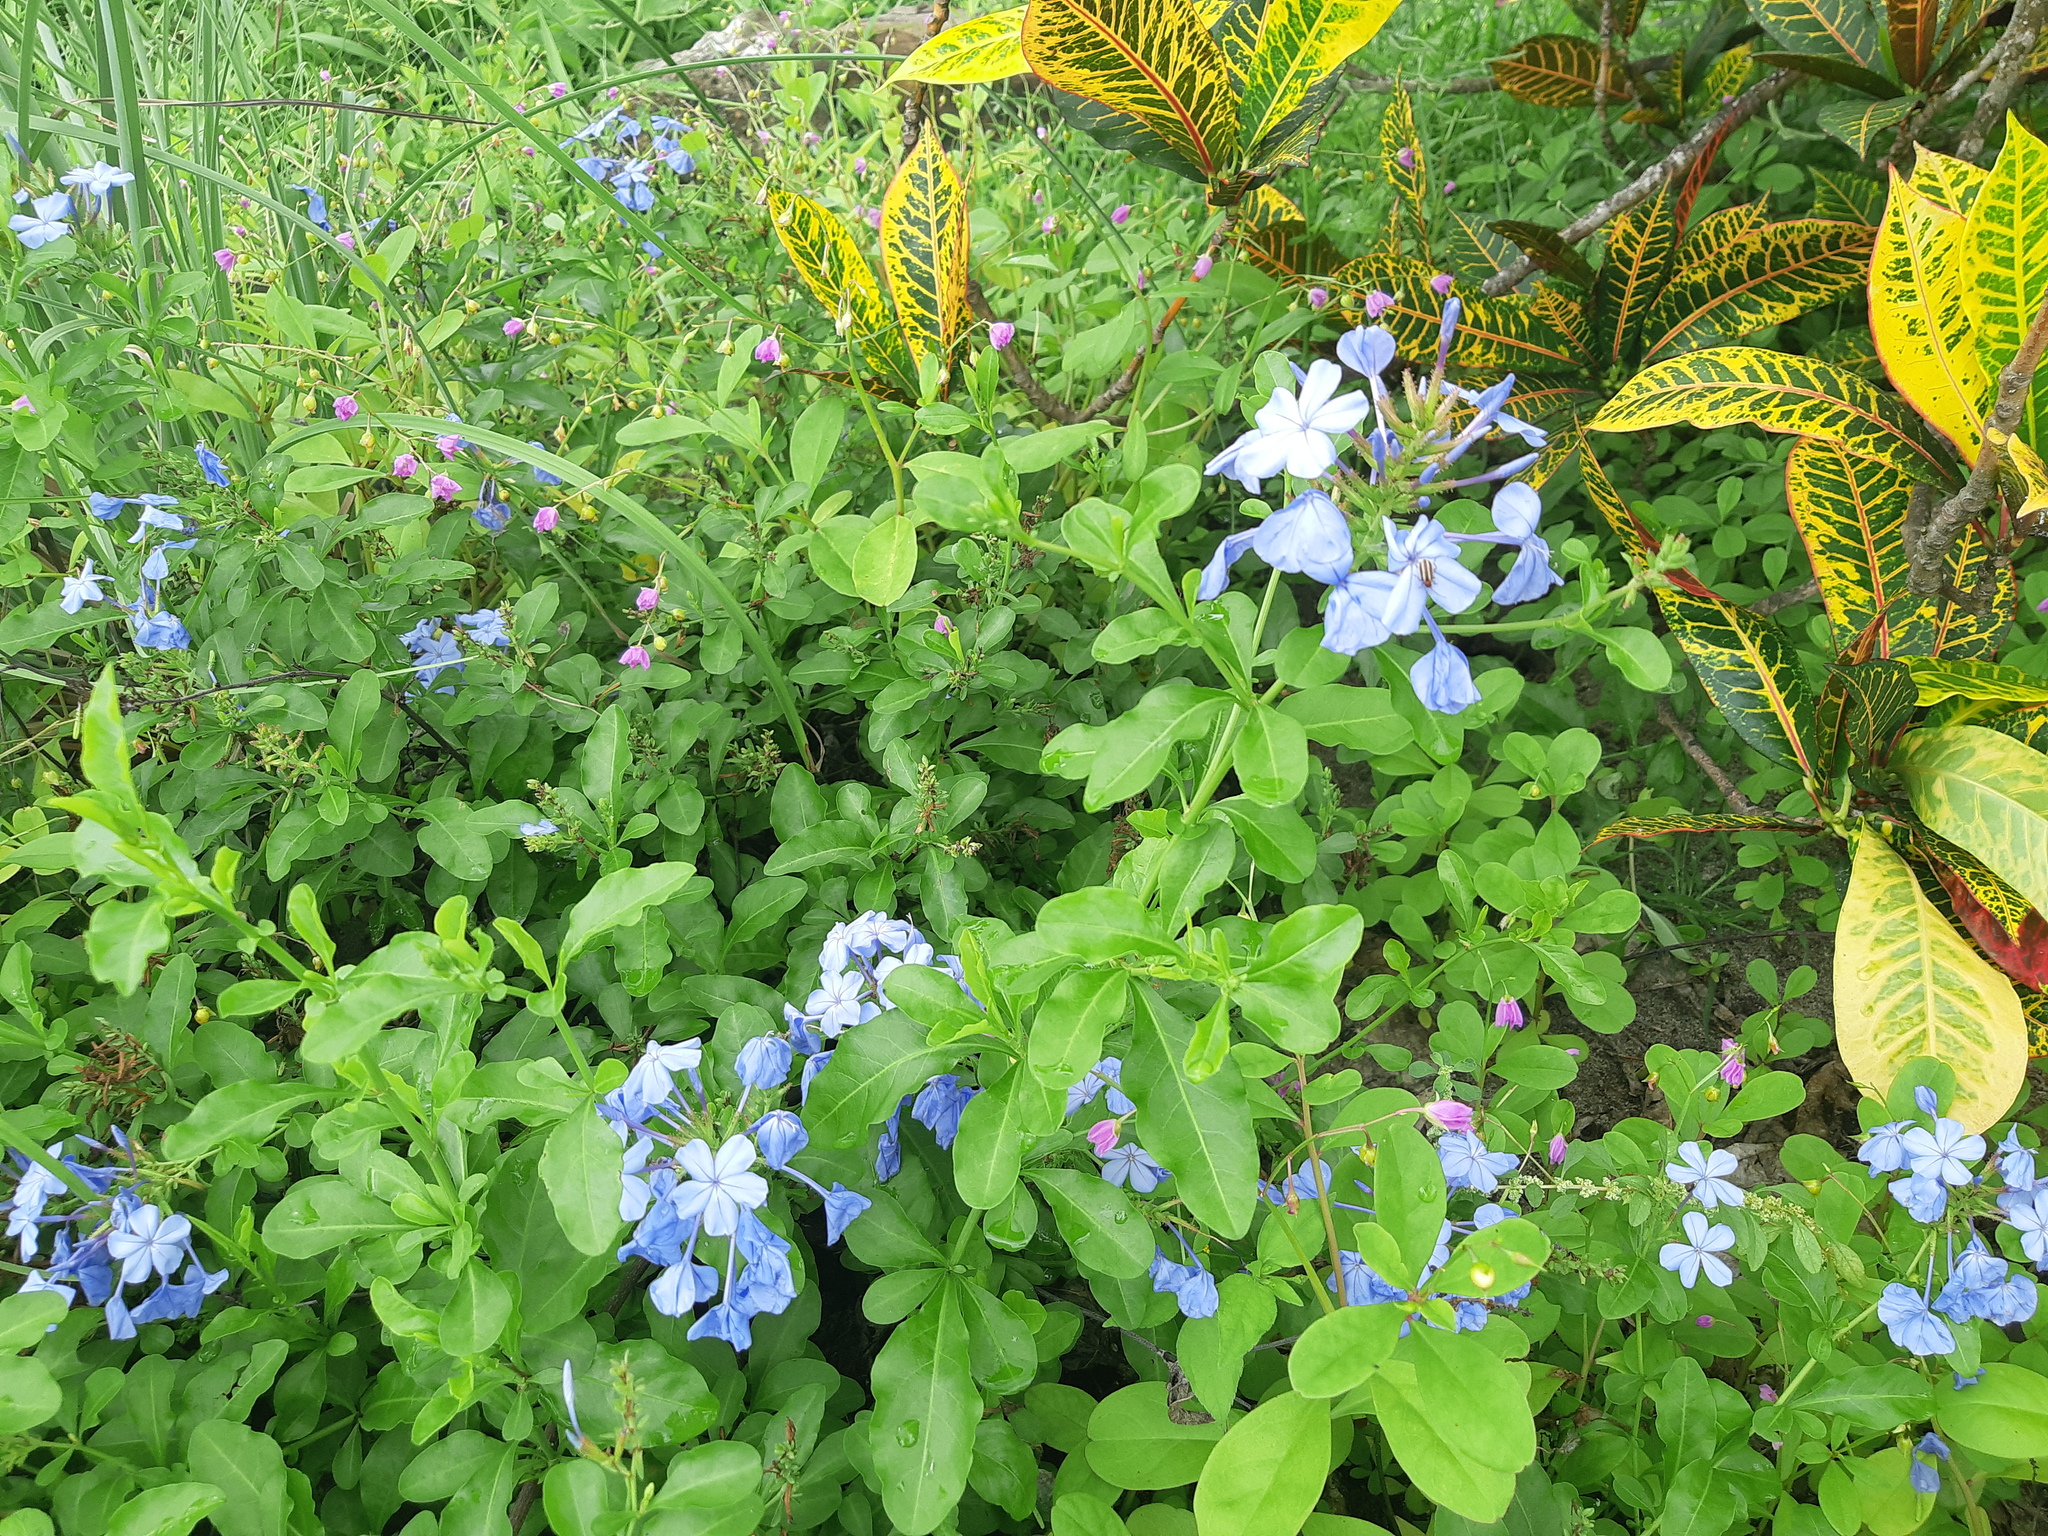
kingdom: Plantae
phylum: Tracheophyta
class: Magnoliopsida
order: Caryophyllales
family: Plumbaginaceae
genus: Plumbago
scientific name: Plumbago auriculata
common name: Cape leadwort
